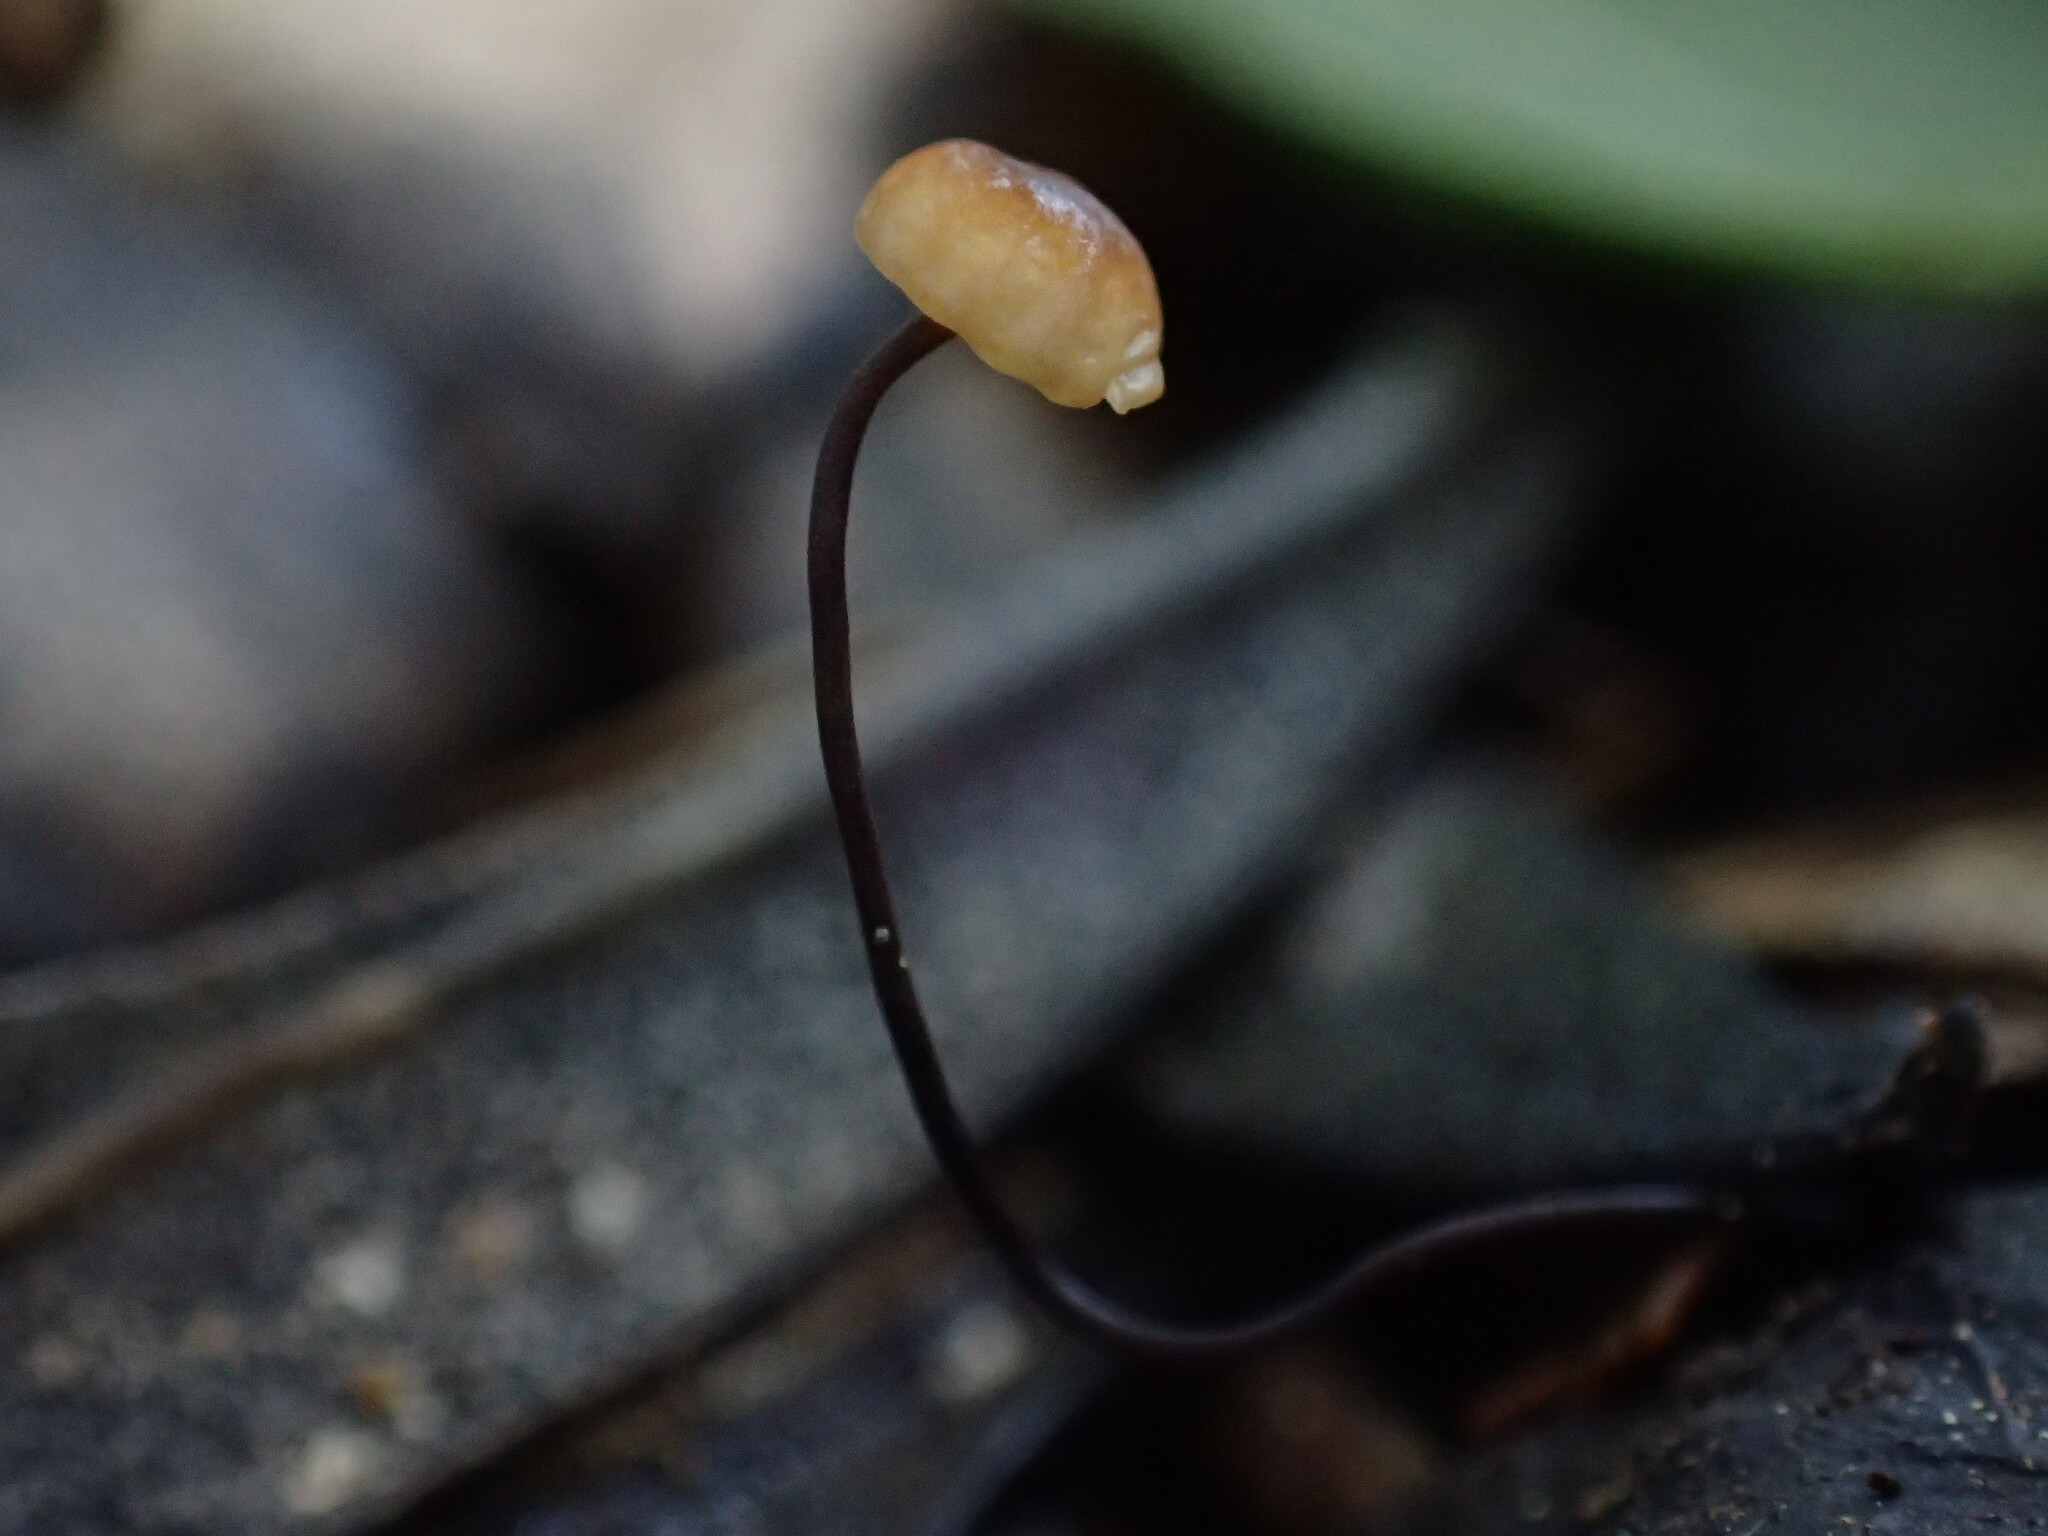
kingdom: Fungi
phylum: Basidiomycota
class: Agaricomycetes
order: Agaricales
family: Physalacriaceae
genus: Cryptomarasmius
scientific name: Cryptomarasmius corbariensis
